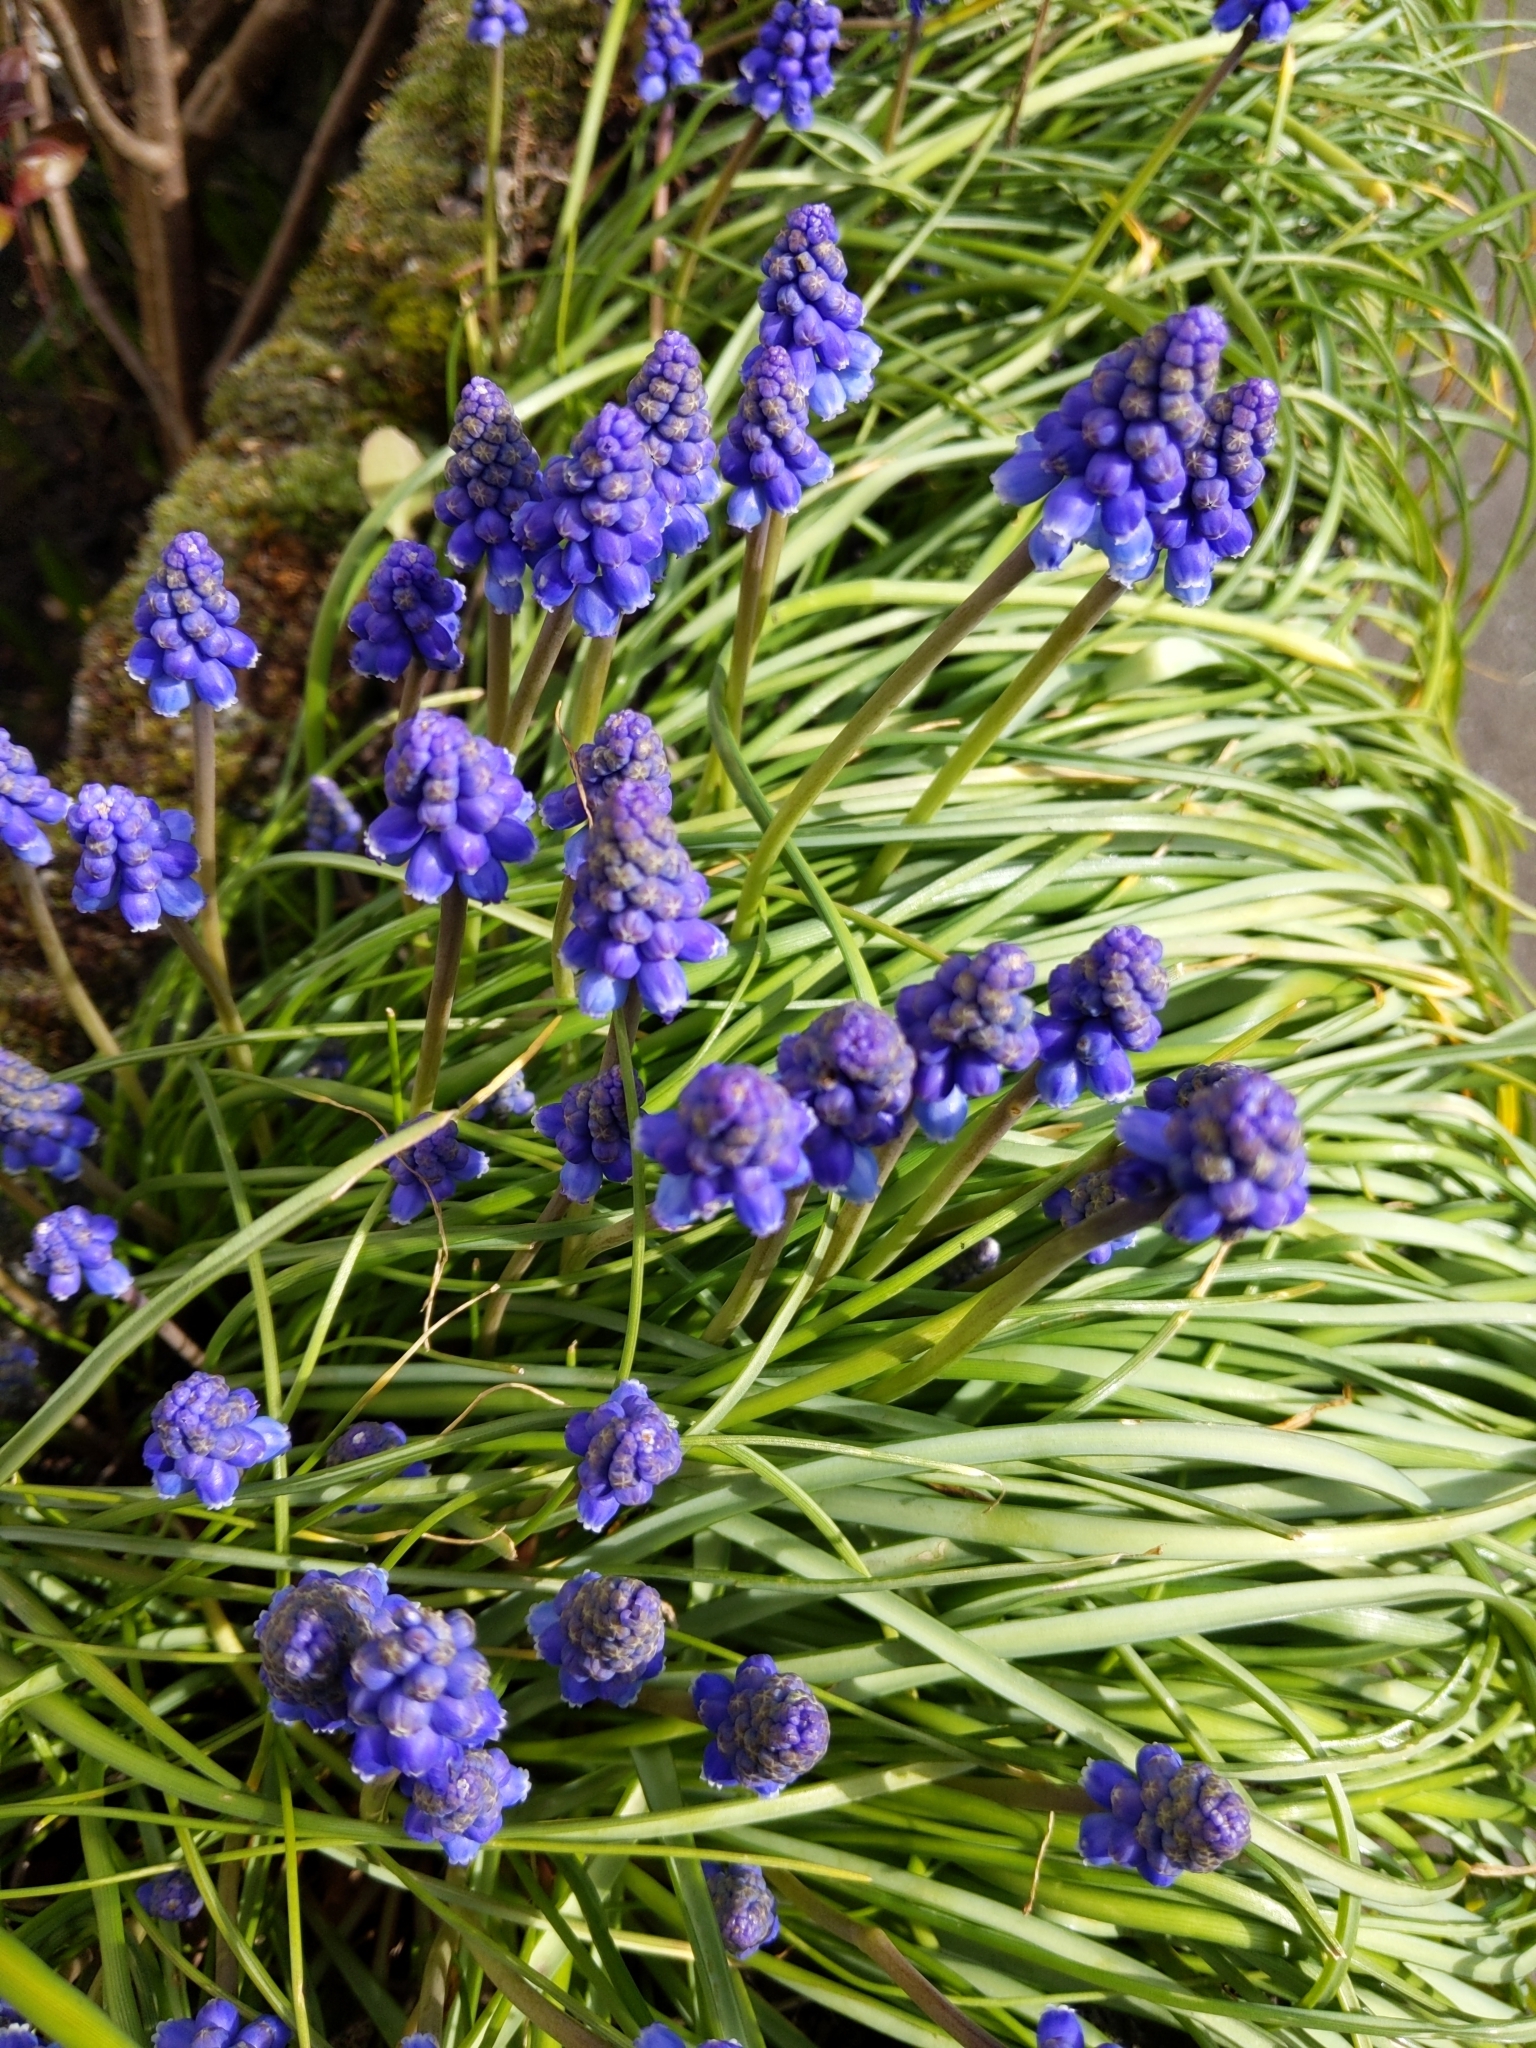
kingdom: Plantae
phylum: Tracheophyta
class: Liliopsida
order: Asparagales
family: Asparagaceae
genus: Muscari
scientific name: Muscari armeniacum
